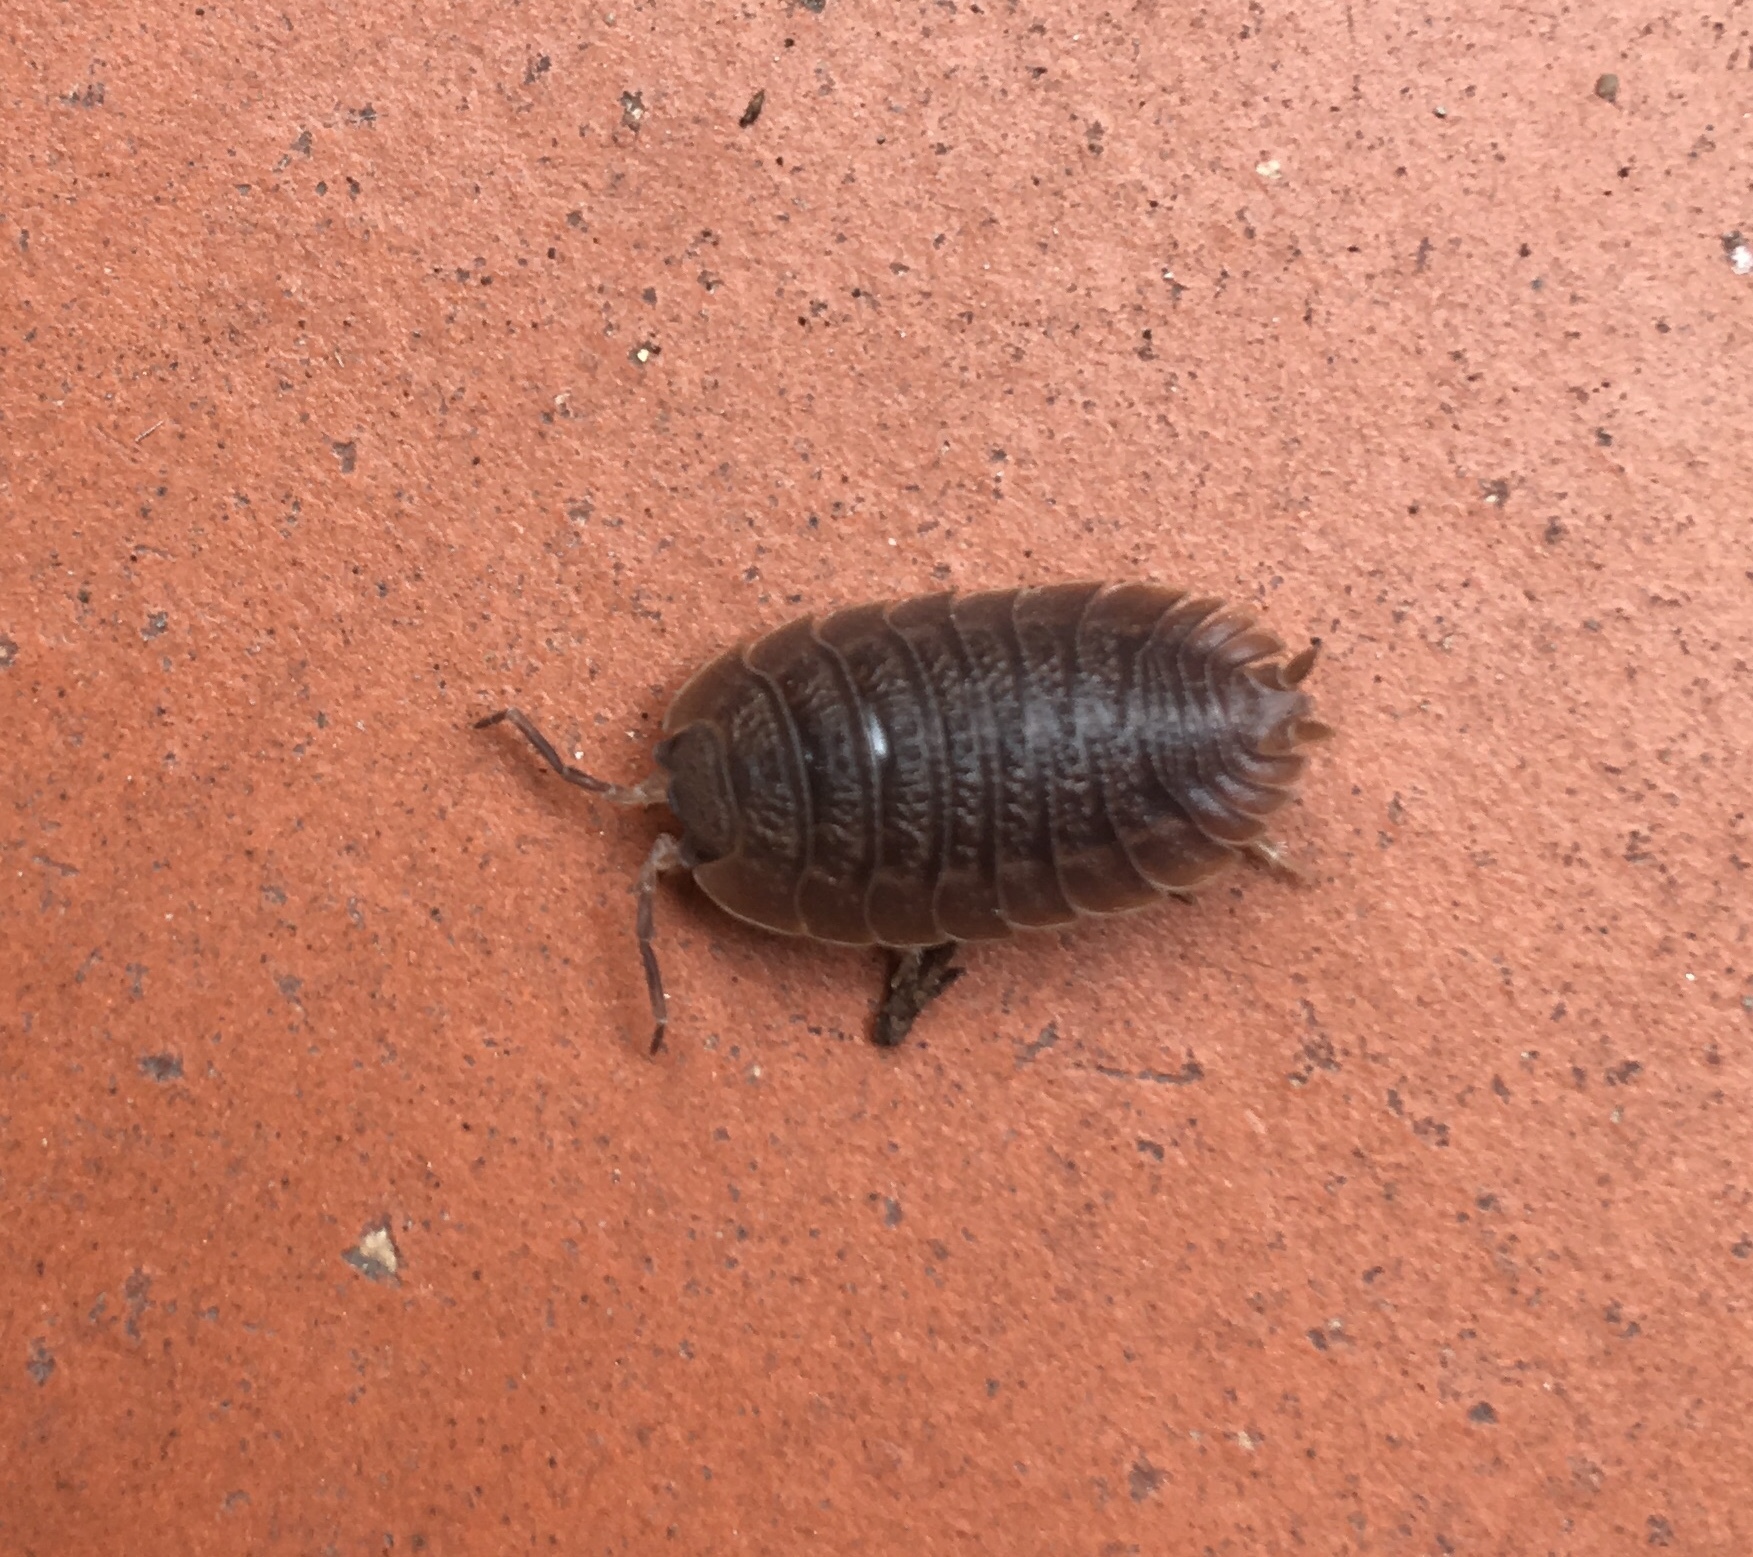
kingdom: Animalia
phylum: Arthropoda
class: Malacostraca
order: Isopoda
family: Porcellionidae
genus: Porcellio
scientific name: Porcellio scaber
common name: Common rough woodlouse
